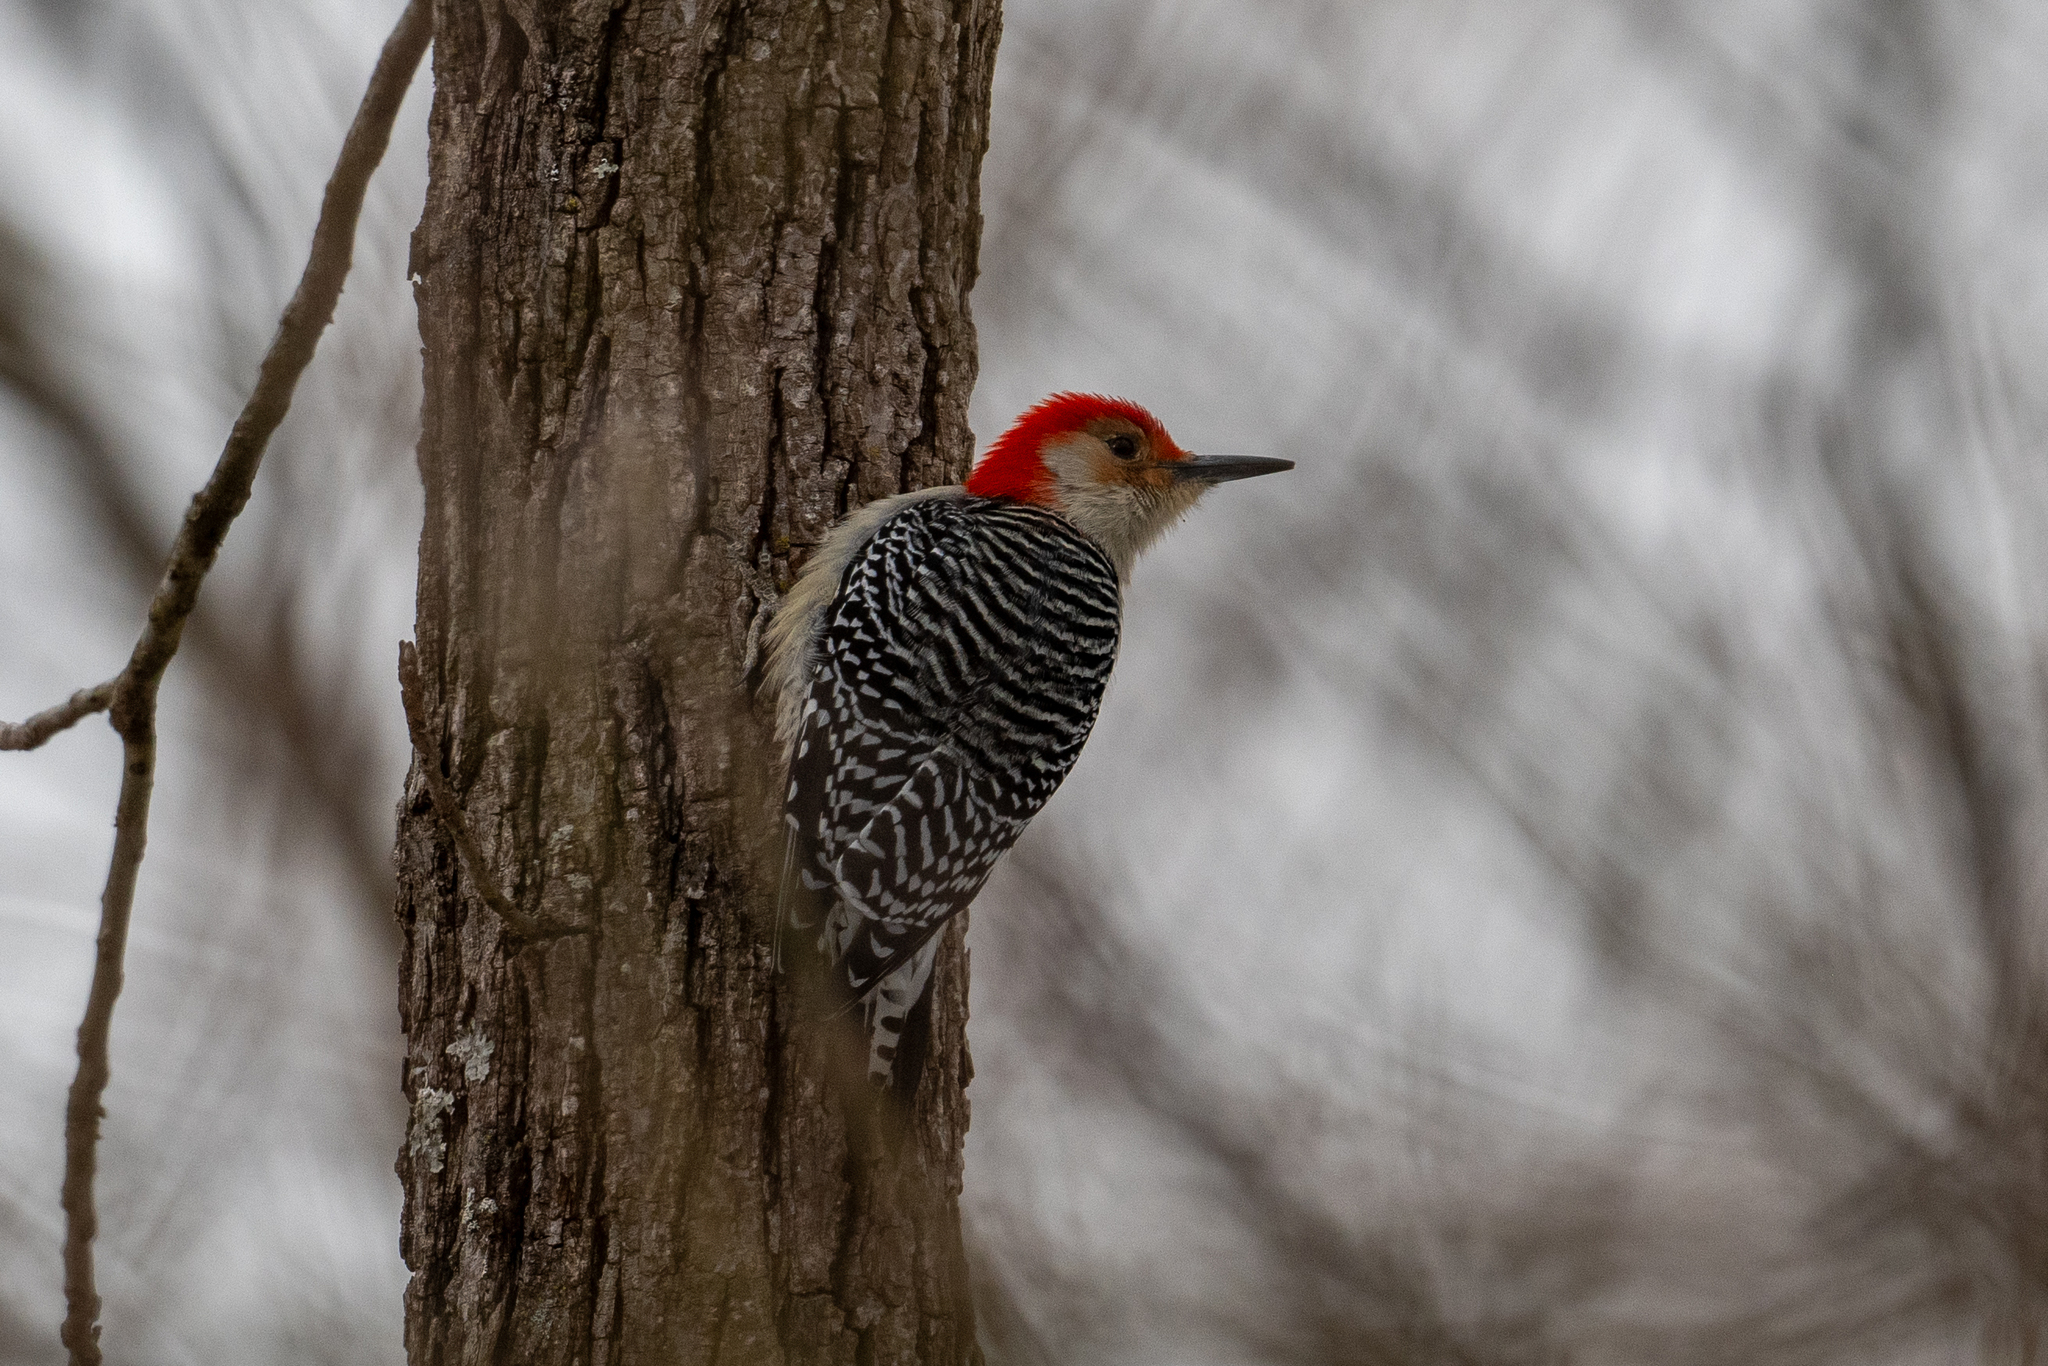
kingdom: Animalia
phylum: Chordata
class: Aves
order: Piciformes
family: Picidae
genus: Melanerpes
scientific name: Melanerpes carolinus
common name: Red-bellied woodpecker
